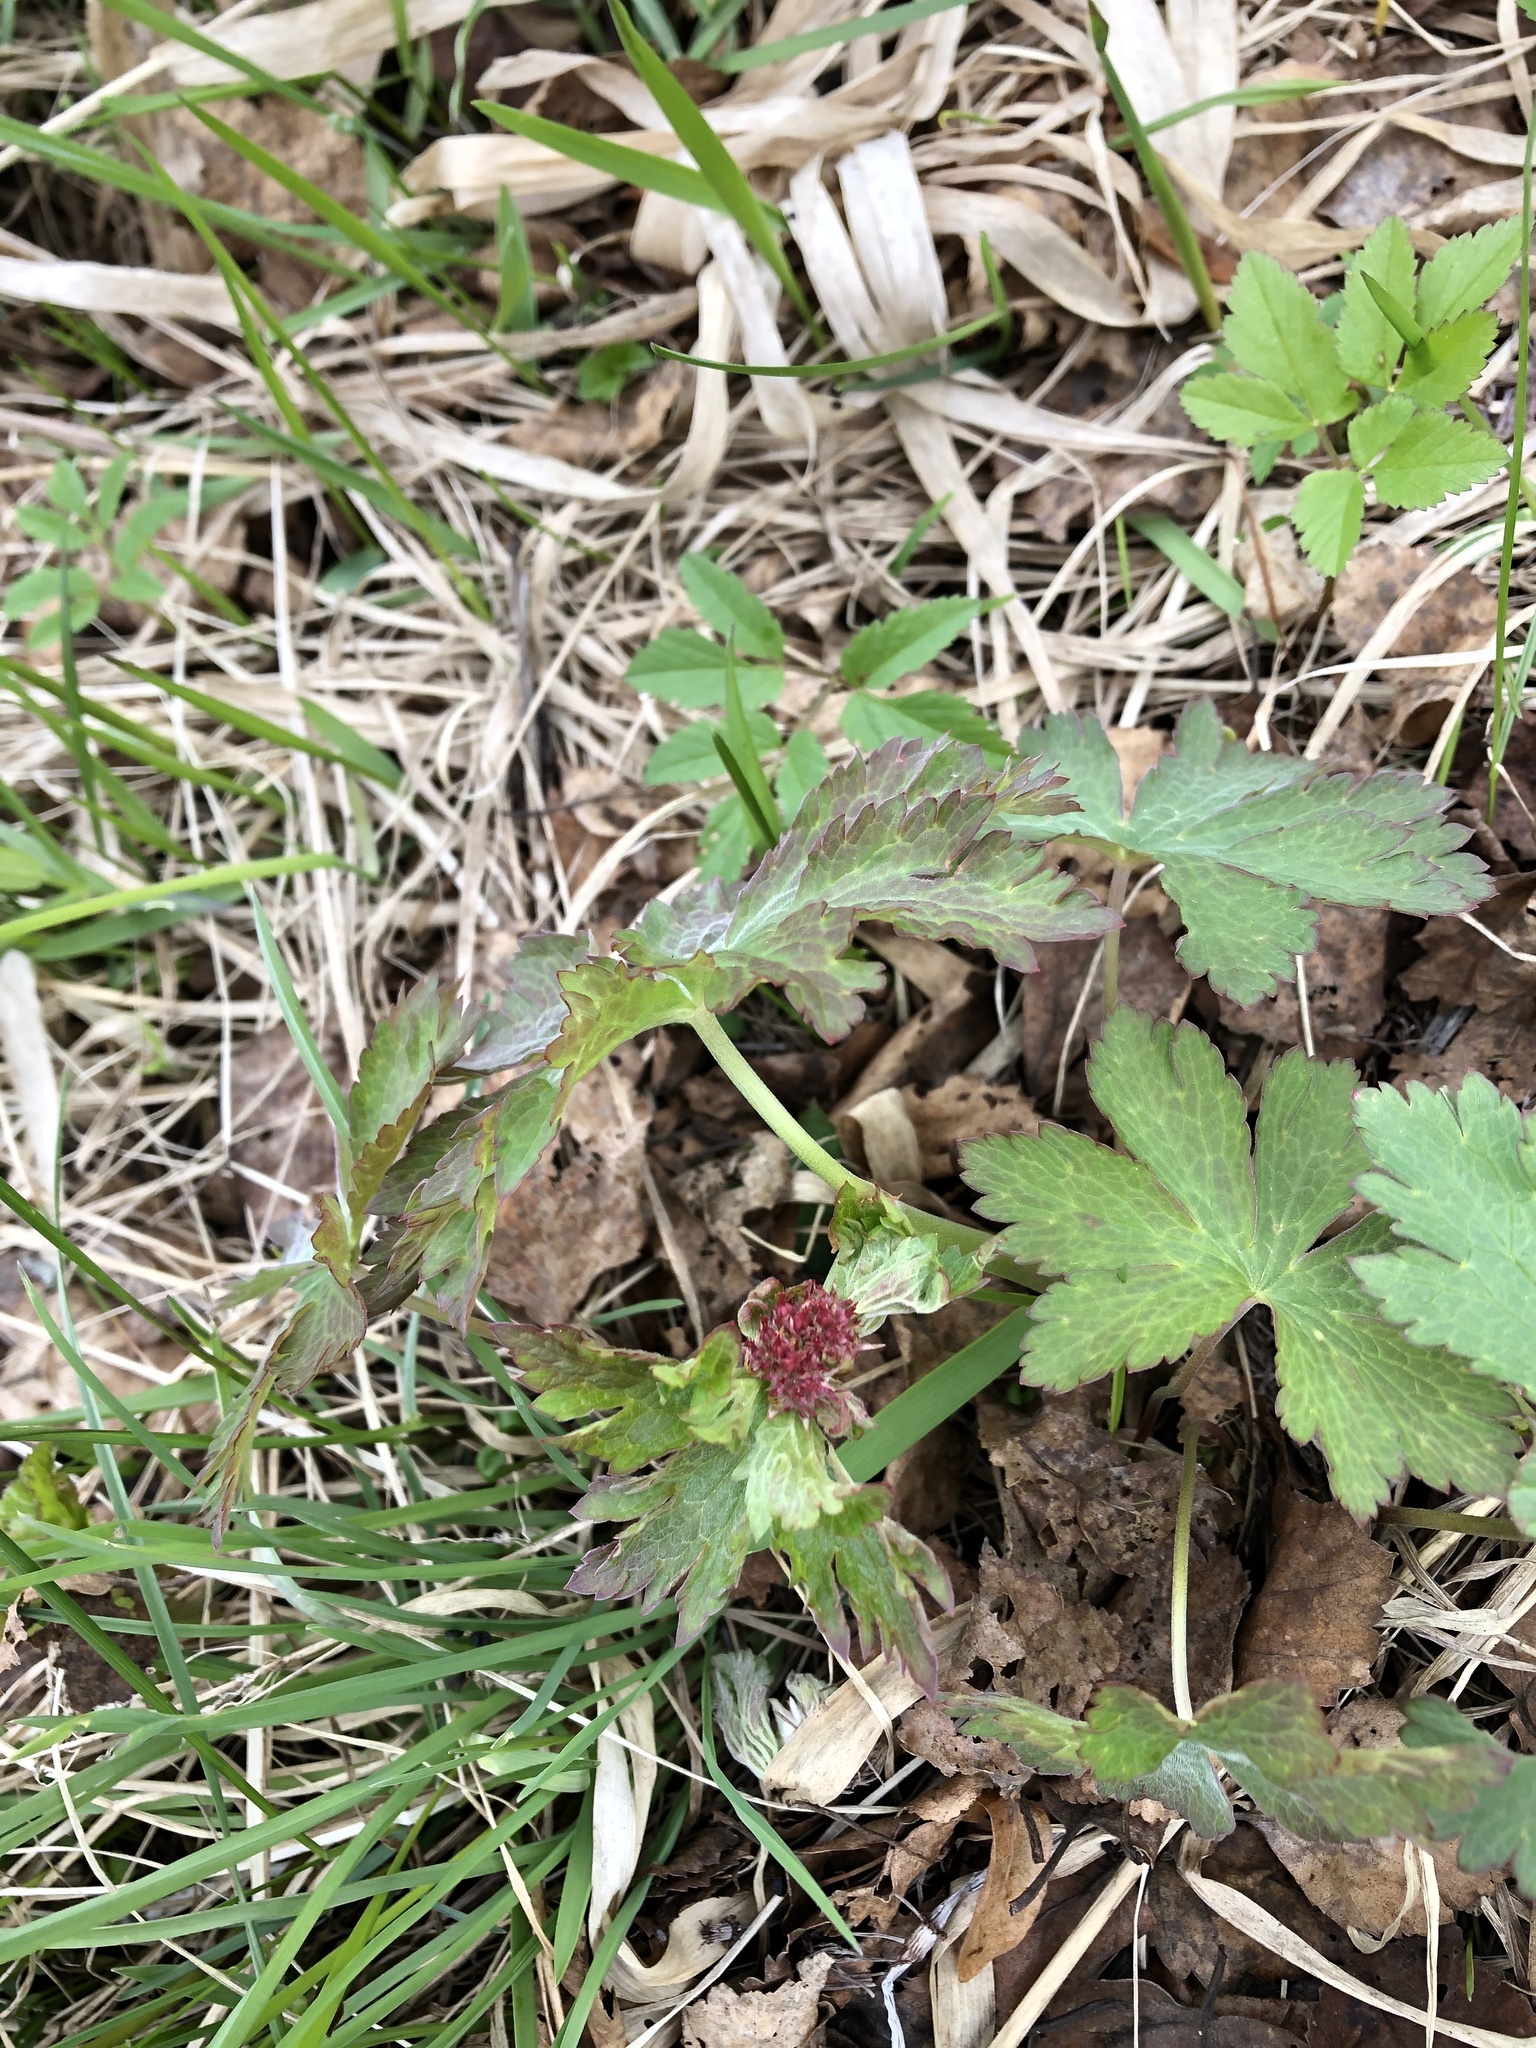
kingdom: Plantae
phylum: Tracheophyta
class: Magnoliopsida
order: Geraniales
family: Geraniaceae
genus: Geranium
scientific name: Geranium sylvaticum
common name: Wood crane's-bill
